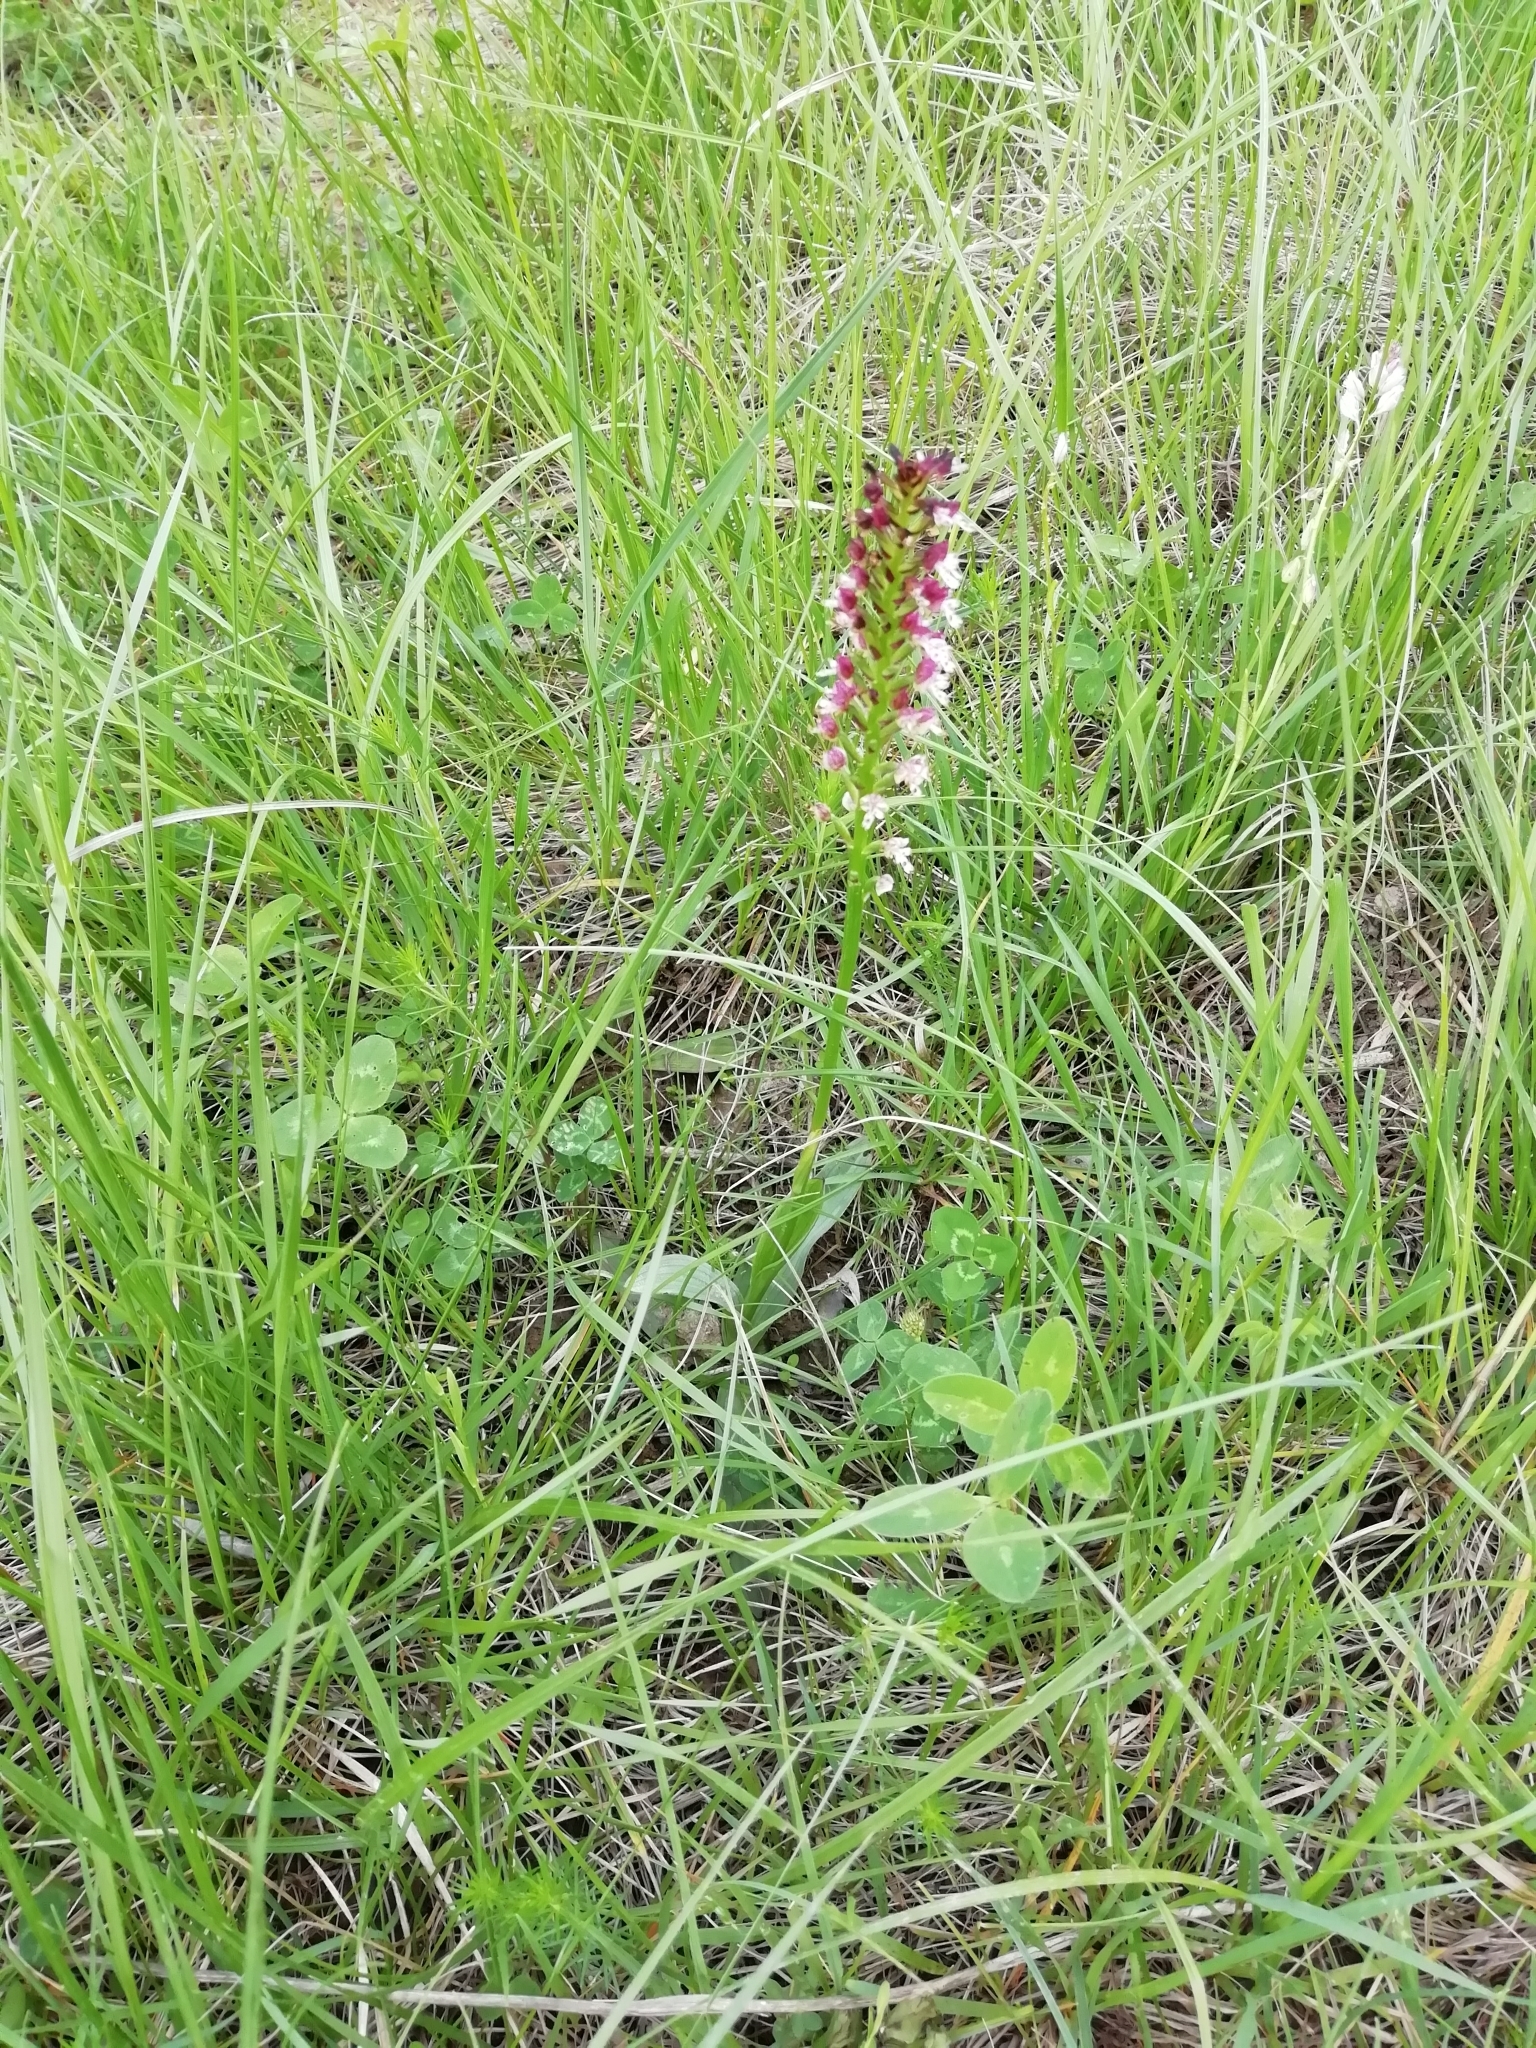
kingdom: Plantae
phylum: Tracheophyta
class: Liliopsida
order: Asparagales
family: Orchidaceae
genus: Neotinea
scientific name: Neotinea ustulata
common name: Burnt orchid
